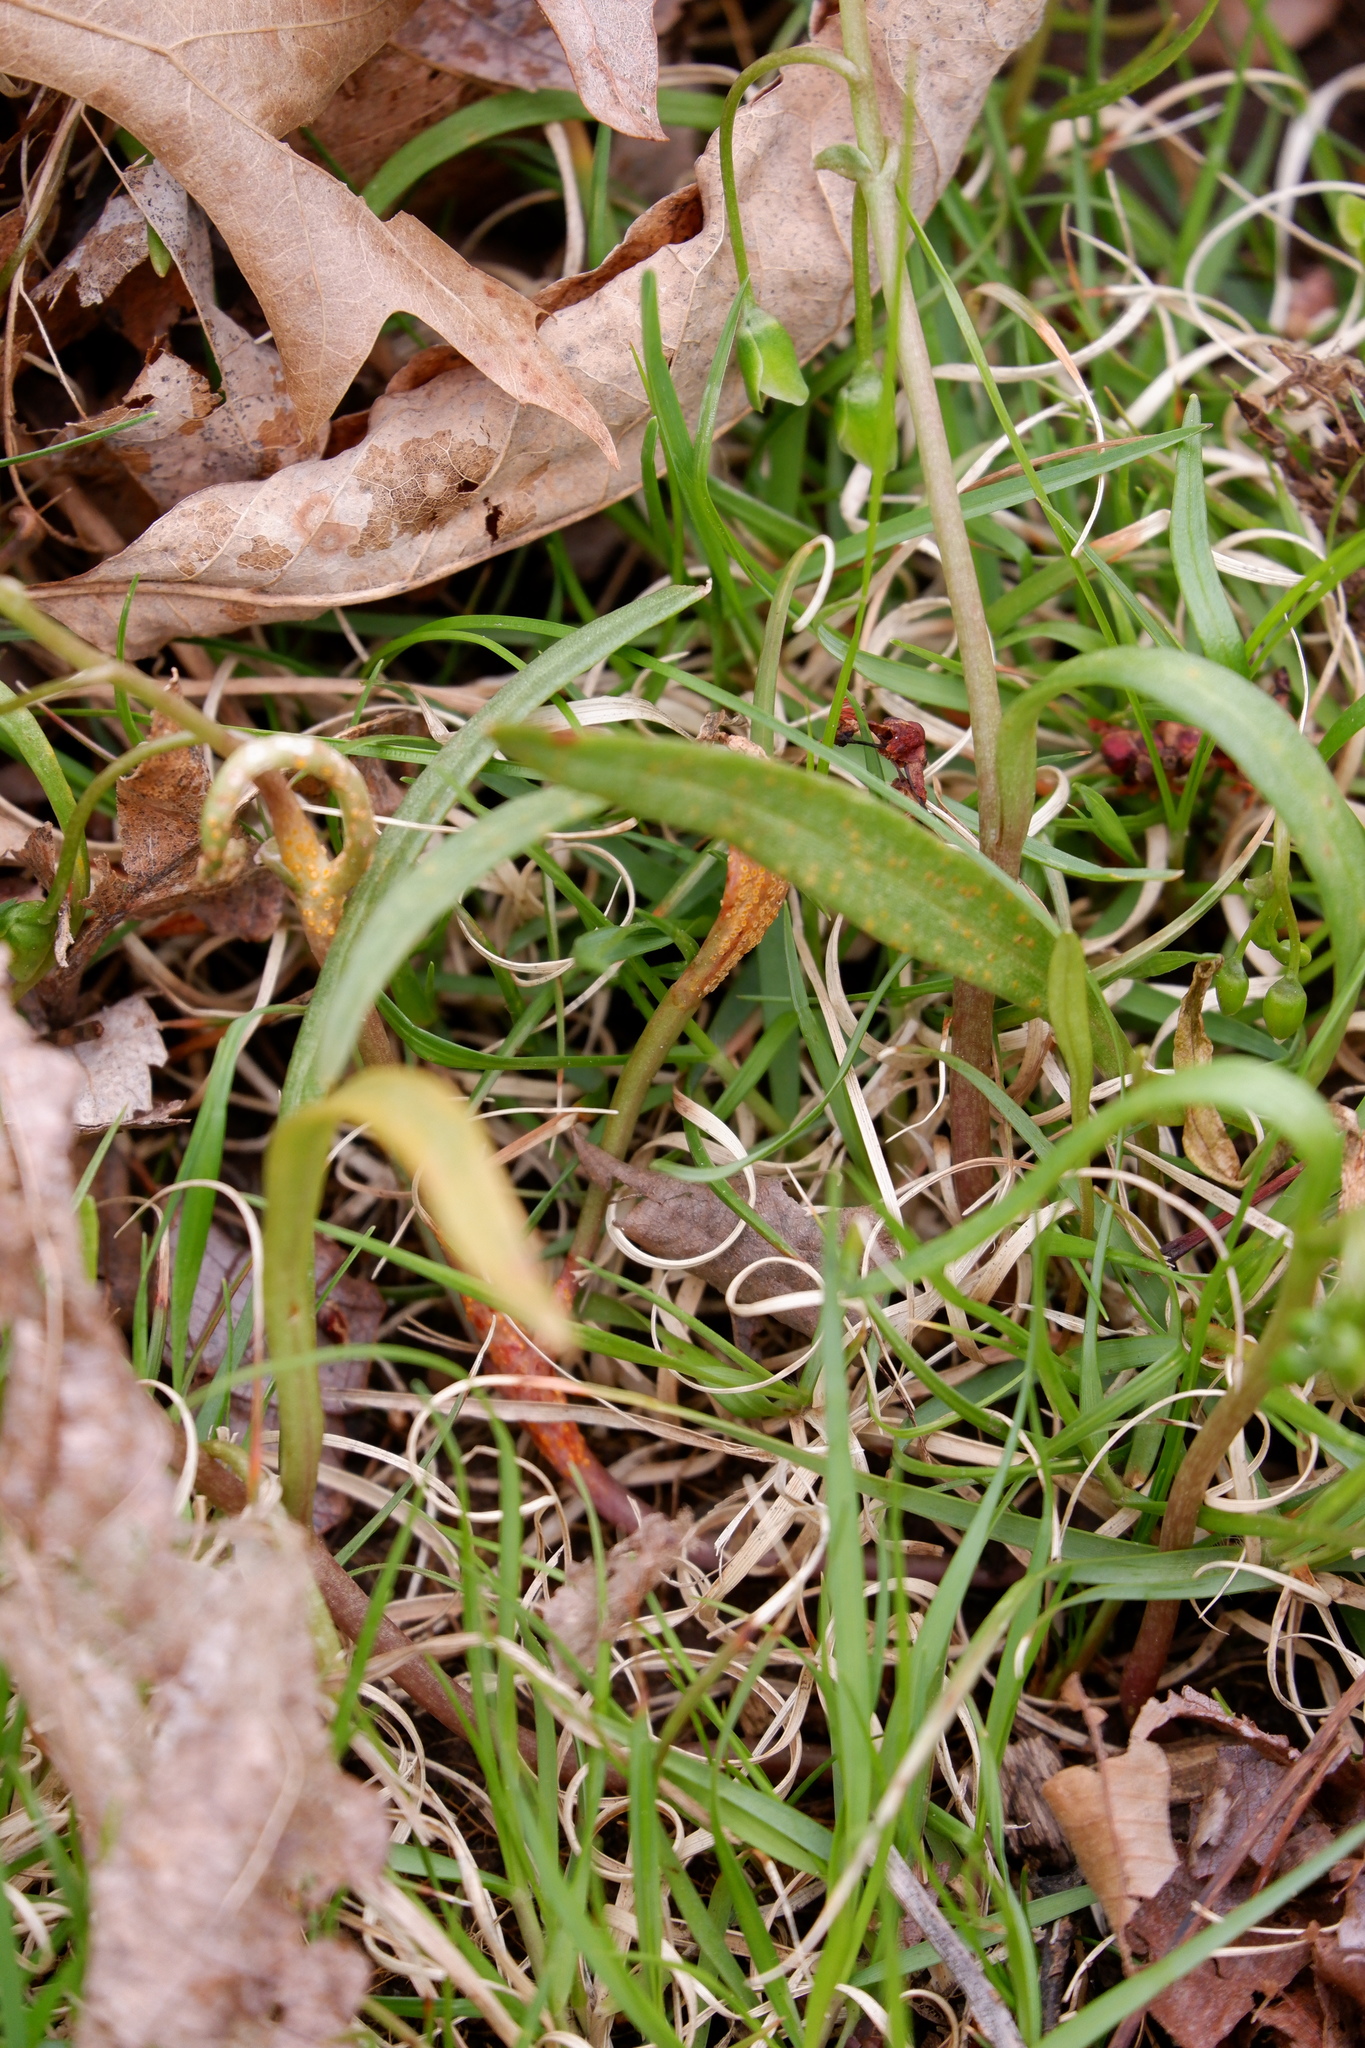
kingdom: Fungi
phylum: Basidiomycota
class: Pucciniomycetes
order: Pucciniales
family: Pucciniaceae
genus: Puccinia
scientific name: Puccinia mariae-wilsoniae
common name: Spring beauty rust
